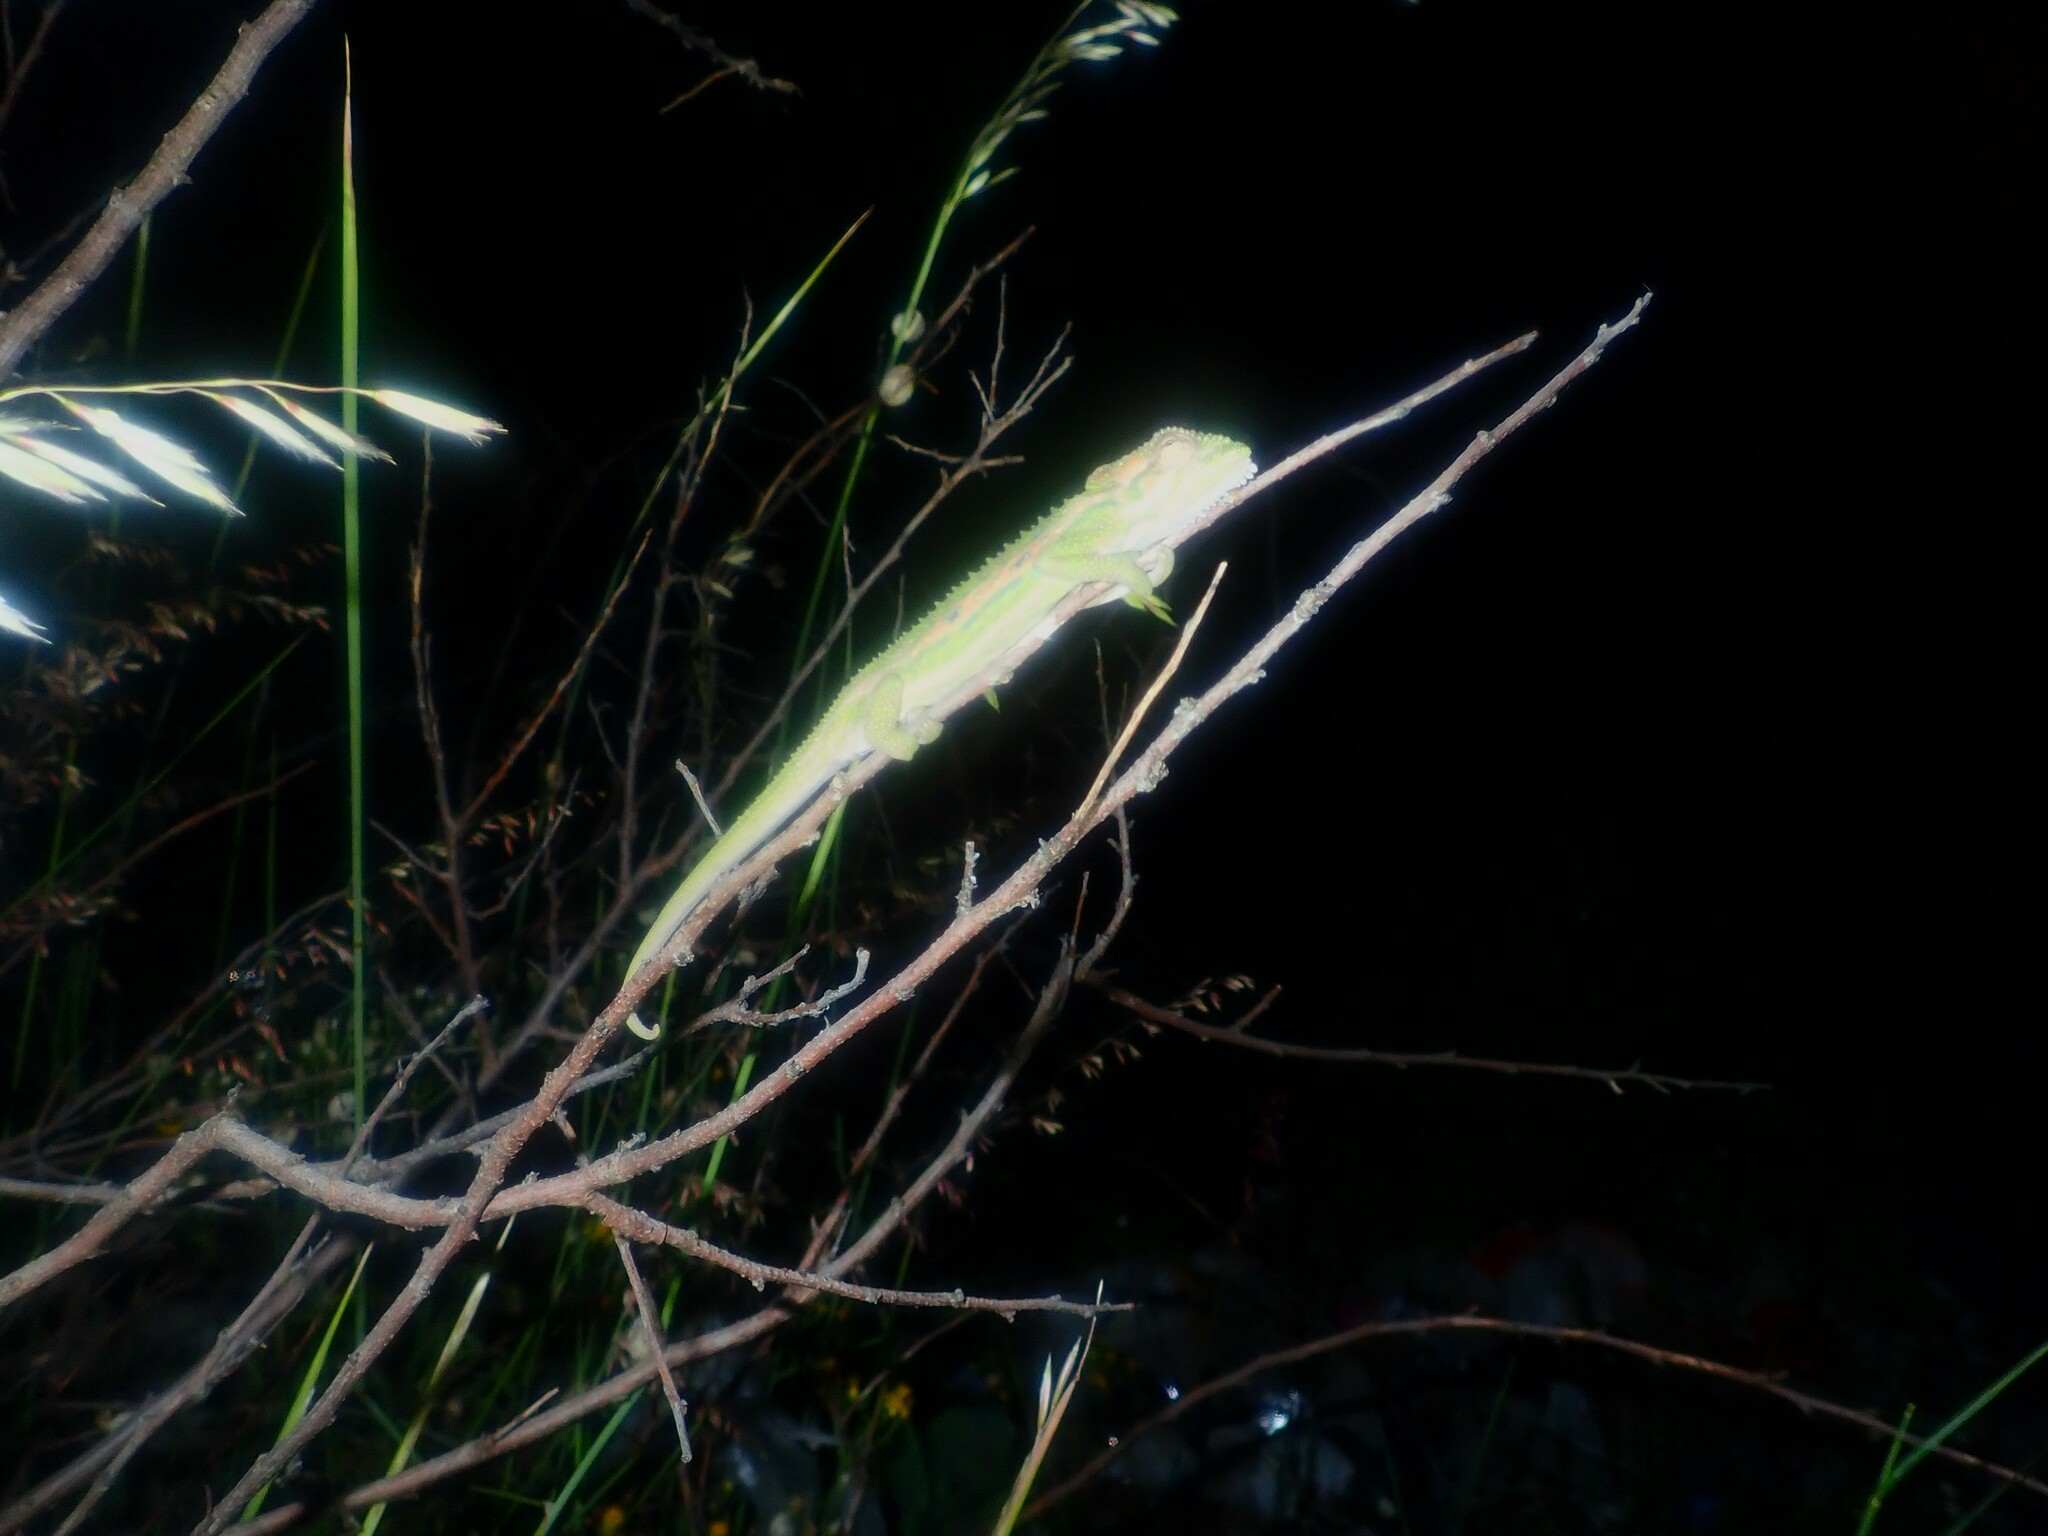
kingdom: Animalia
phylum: Chordata
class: Squamata
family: Chamaeleonidae
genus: Bradypodion
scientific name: Bradypodion pumilum
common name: Cape dwarf chameleon
